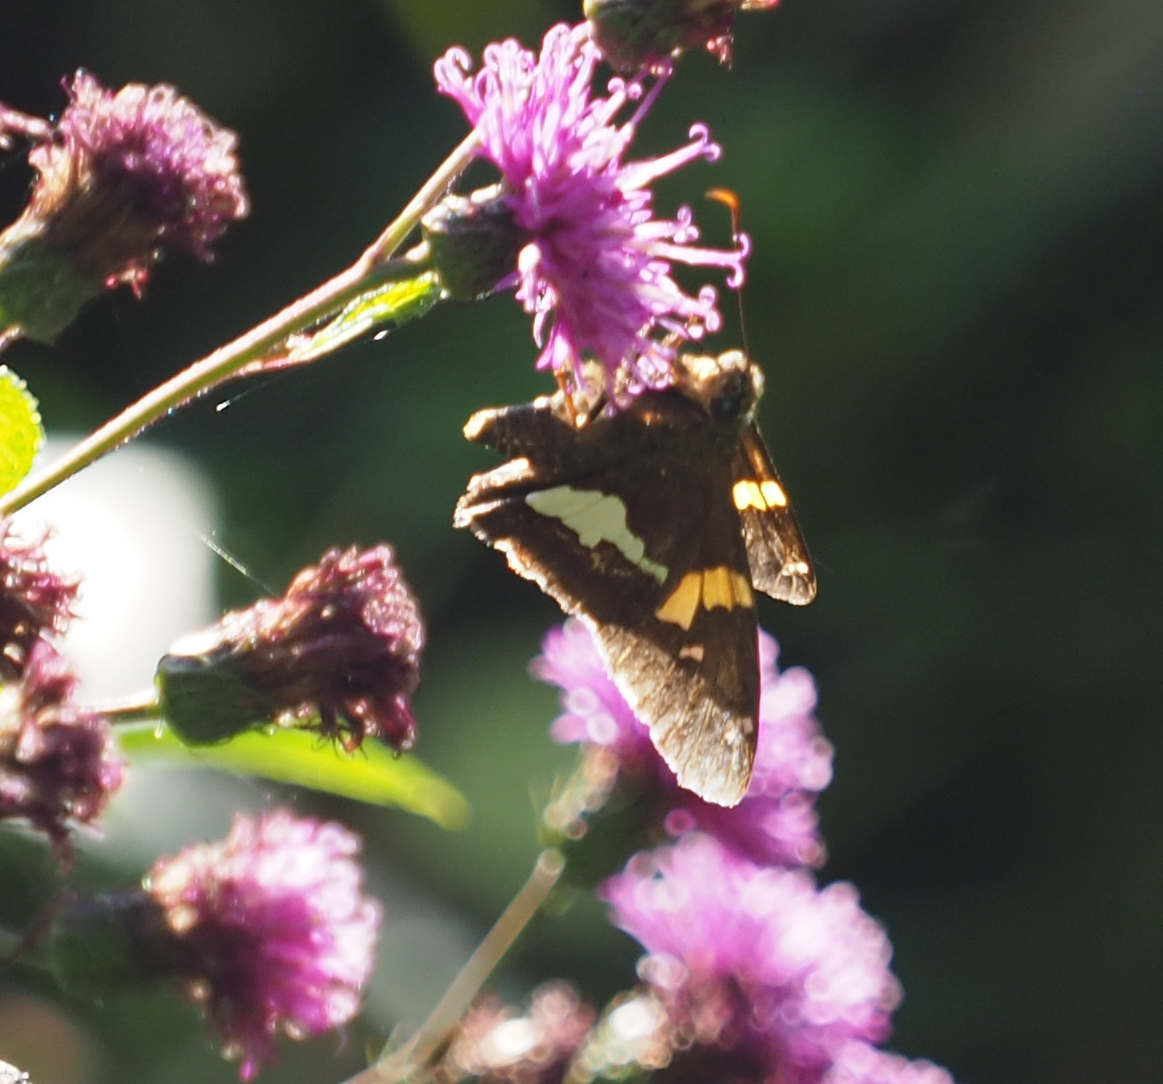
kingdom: Animalia
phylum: Arthropoda
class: Insecta
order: Lepidoptera
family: Hesperiidae
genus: Epargyreus
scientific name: Epargyreus clarus
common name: Silver-spotted skipper
